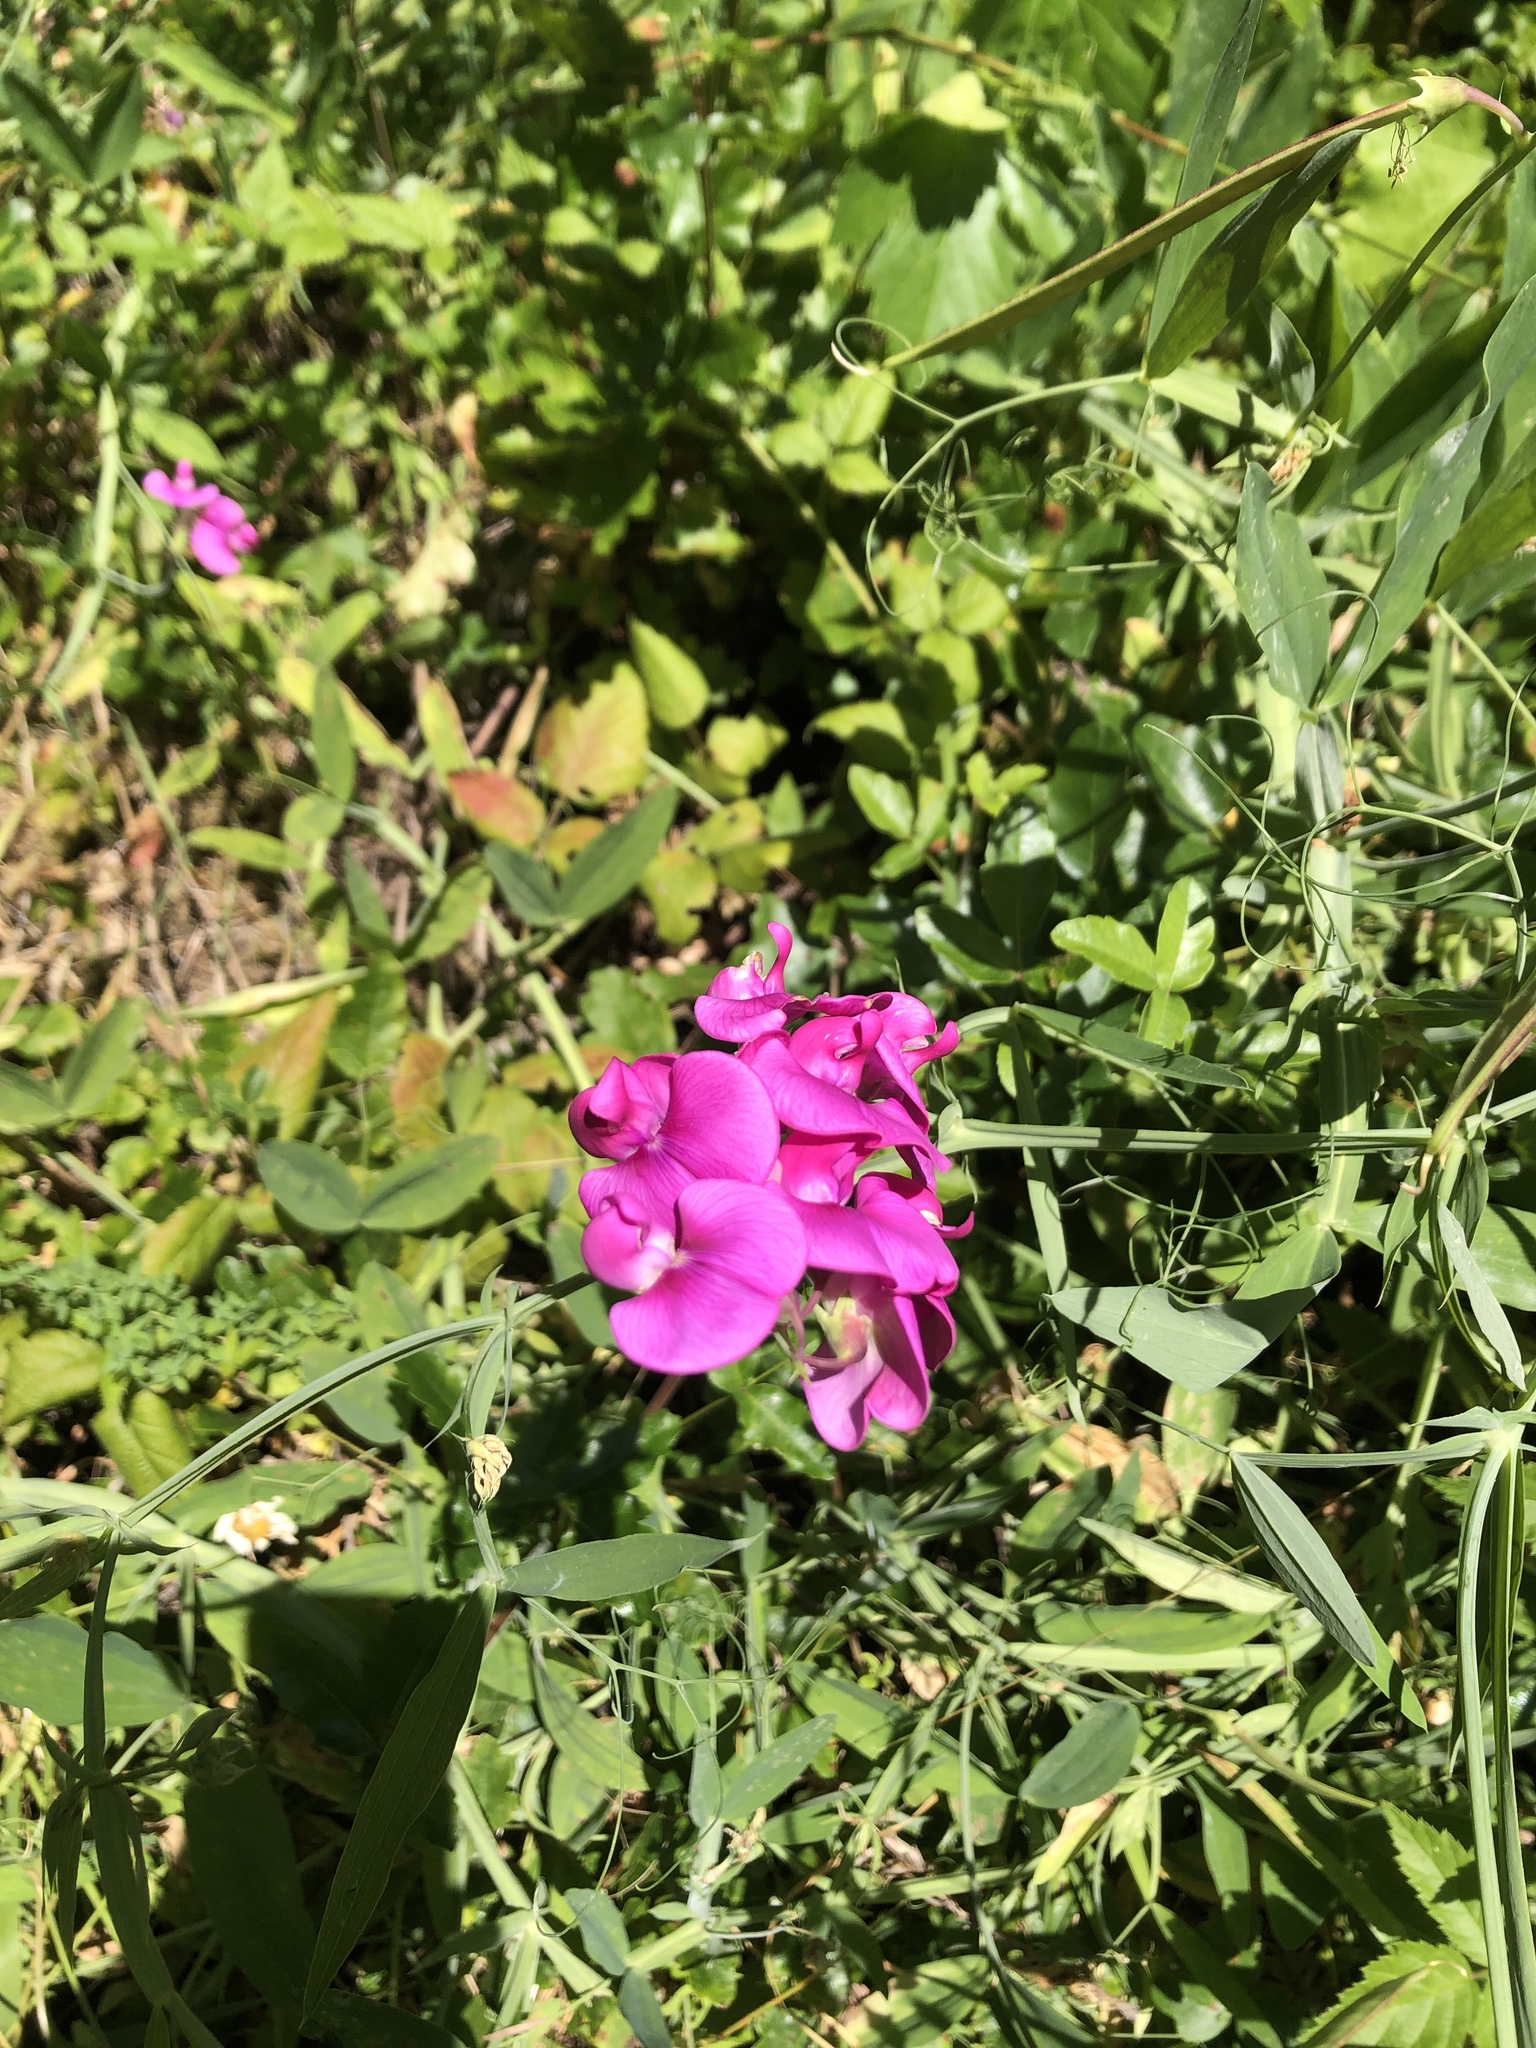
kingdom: Plantae
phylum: Tracheophyta
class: Magnoliopsida
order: Fabales
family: Fabaceae
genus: Lathyrus
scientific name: Lathyrus latifolius
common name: Perennial pea
